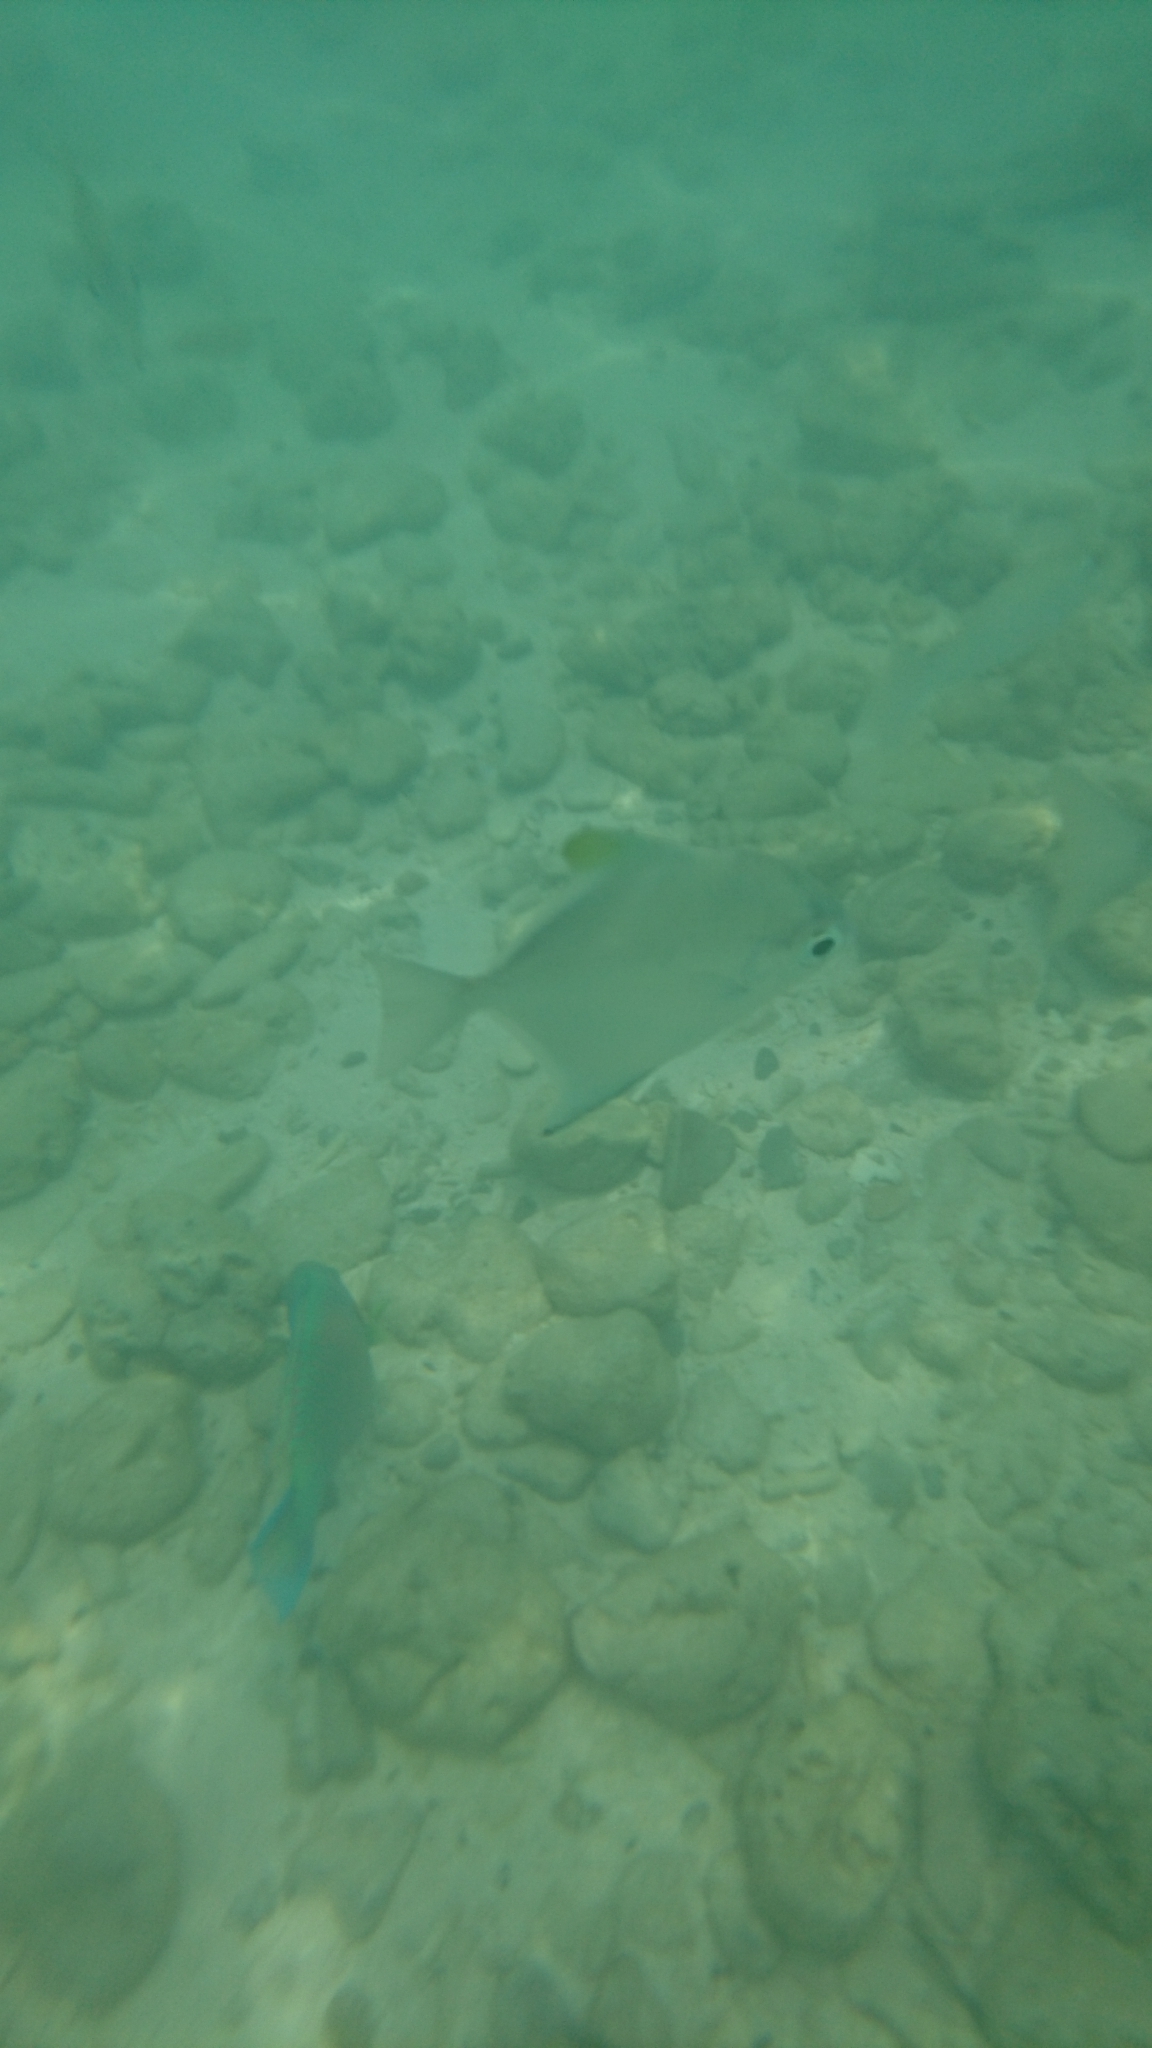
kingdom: Animalia
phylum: Chordata
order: Perciformes
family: Monodactylidae
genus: Monodactylus
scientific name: Monodactylus argenteus
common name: Silver moony
